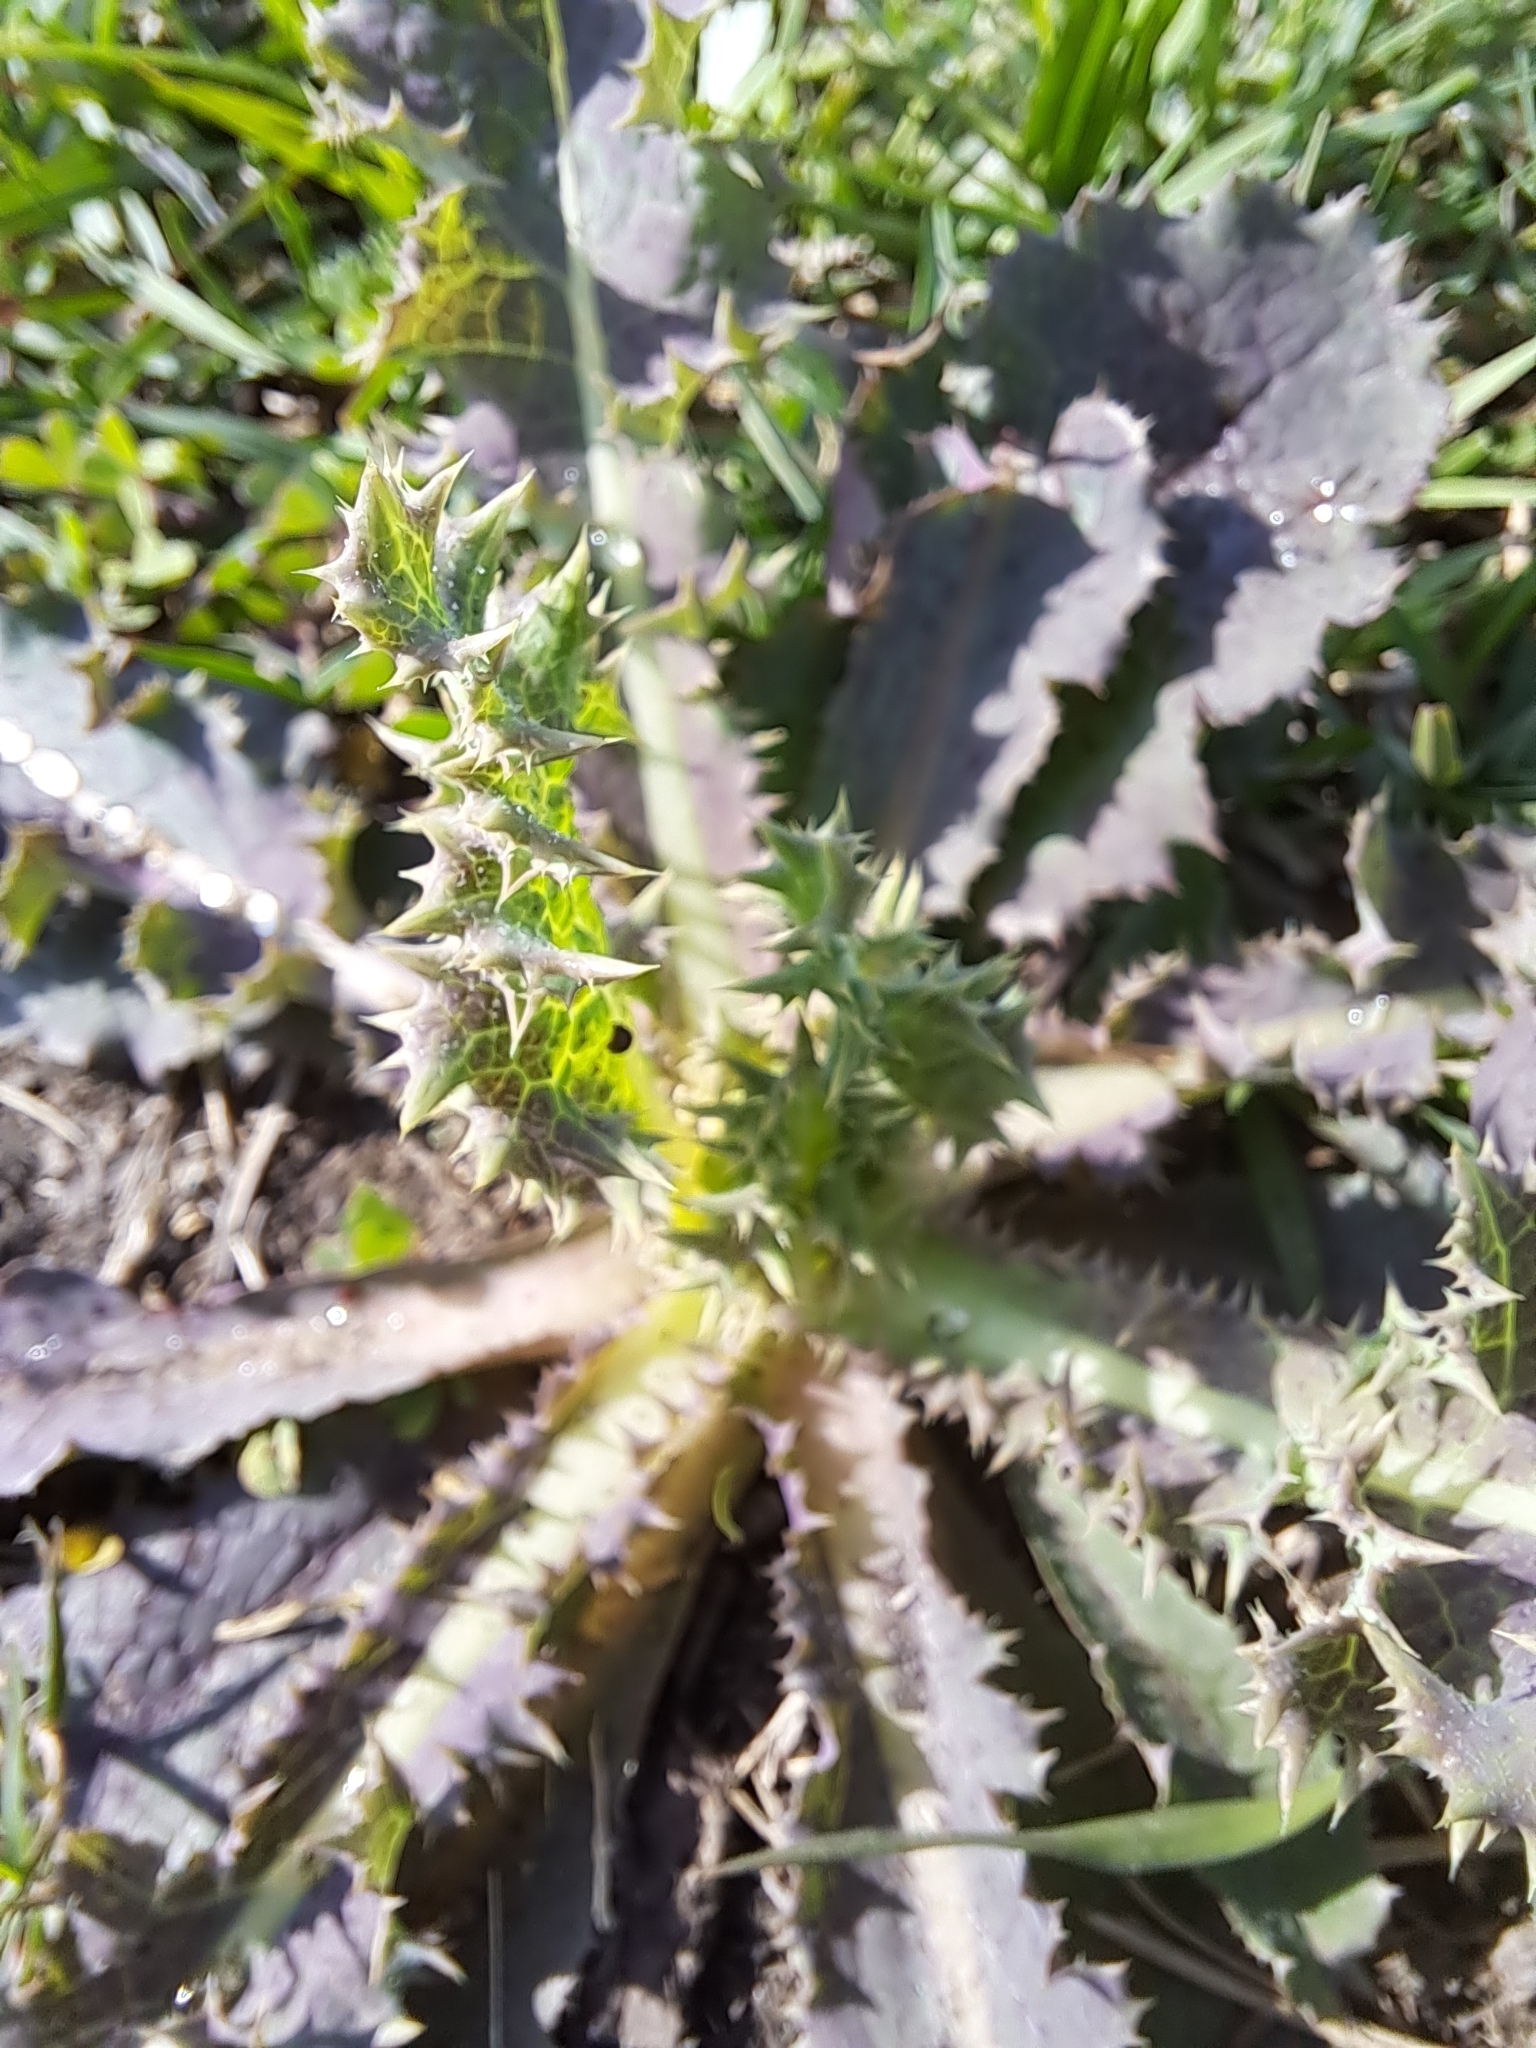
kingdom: Plantae
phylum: Tracheophyta
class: Magnoliopsida
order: Asterales
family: Asteraceae
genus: Sonchus
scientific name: Sonchus asper
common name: Prickly sow-thistle
